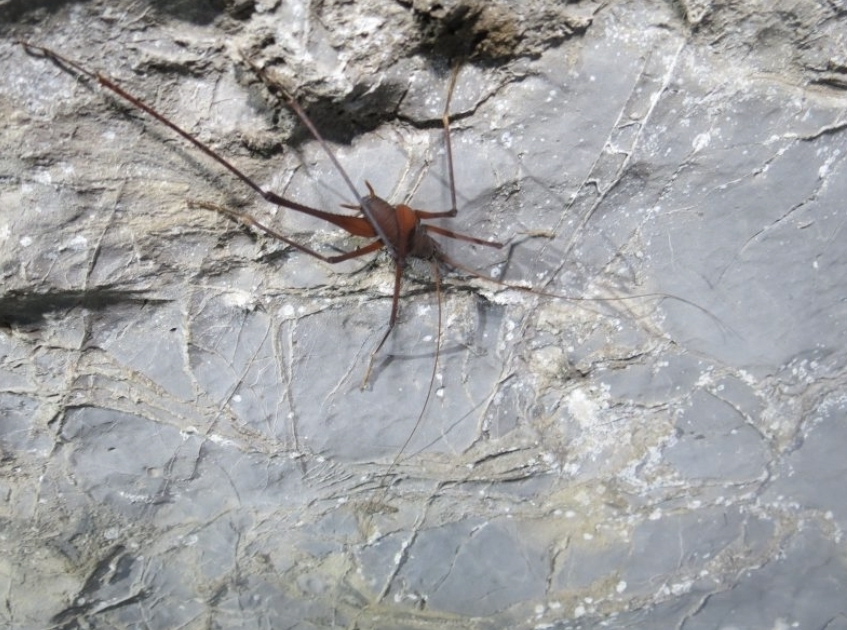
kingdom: Animalia
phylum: Arthropoda
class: Insecta
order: Orthoptera
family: Rhaphidophoridae
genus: Tropidischia
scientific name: Tropidischia xanthostoma
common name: Square-legged camel cricket
